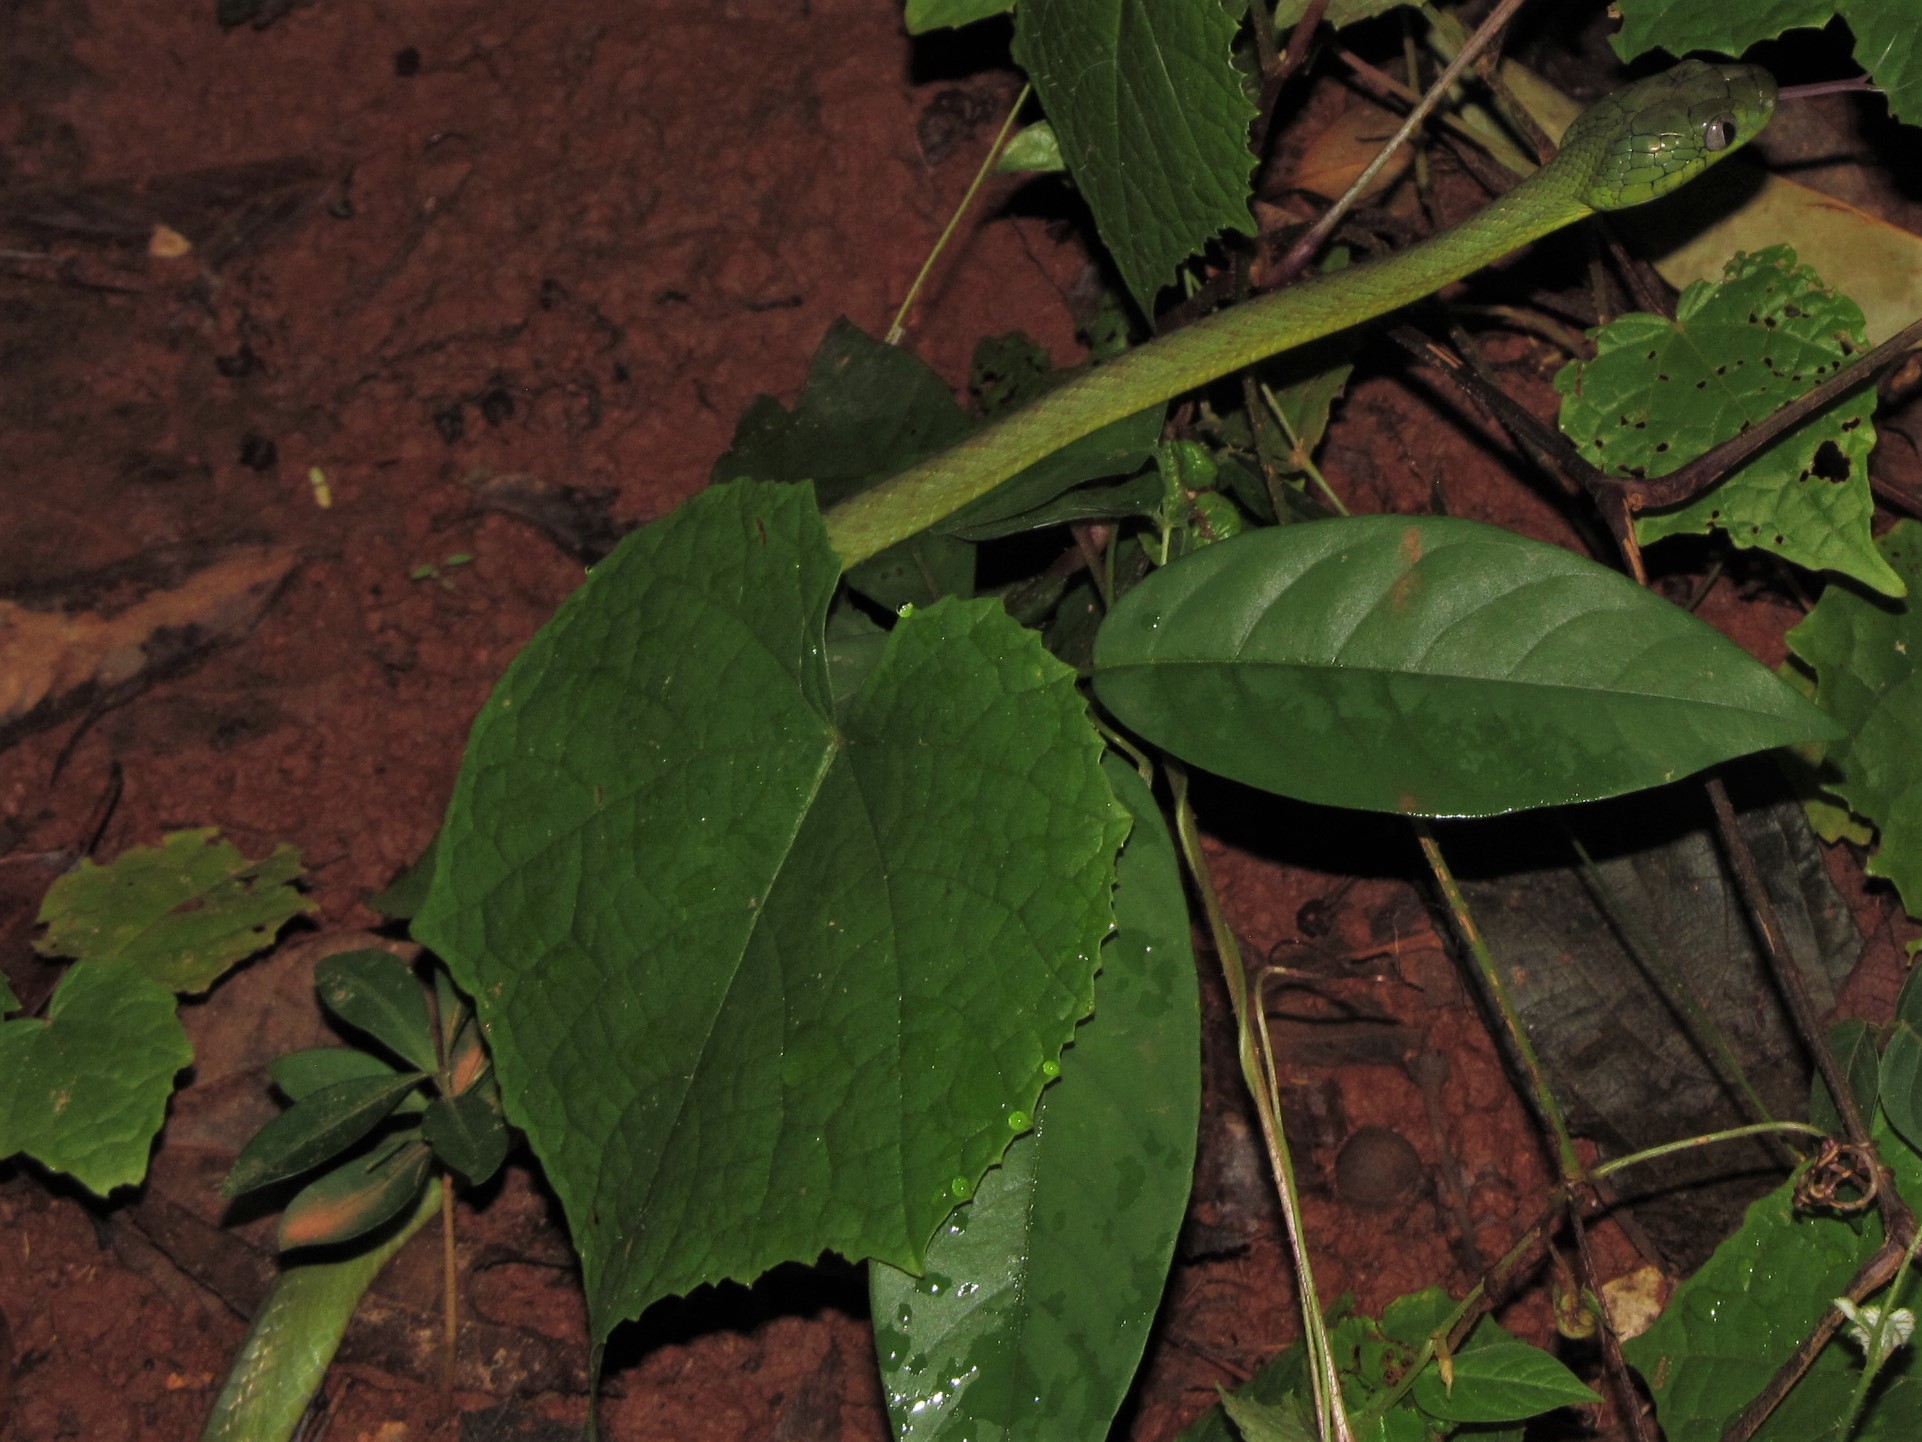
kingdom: Animalia
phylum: Chordata
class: Squamata
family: Colubridae
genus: Boiga
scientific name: Boiga cyanea
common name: Green cat snake
